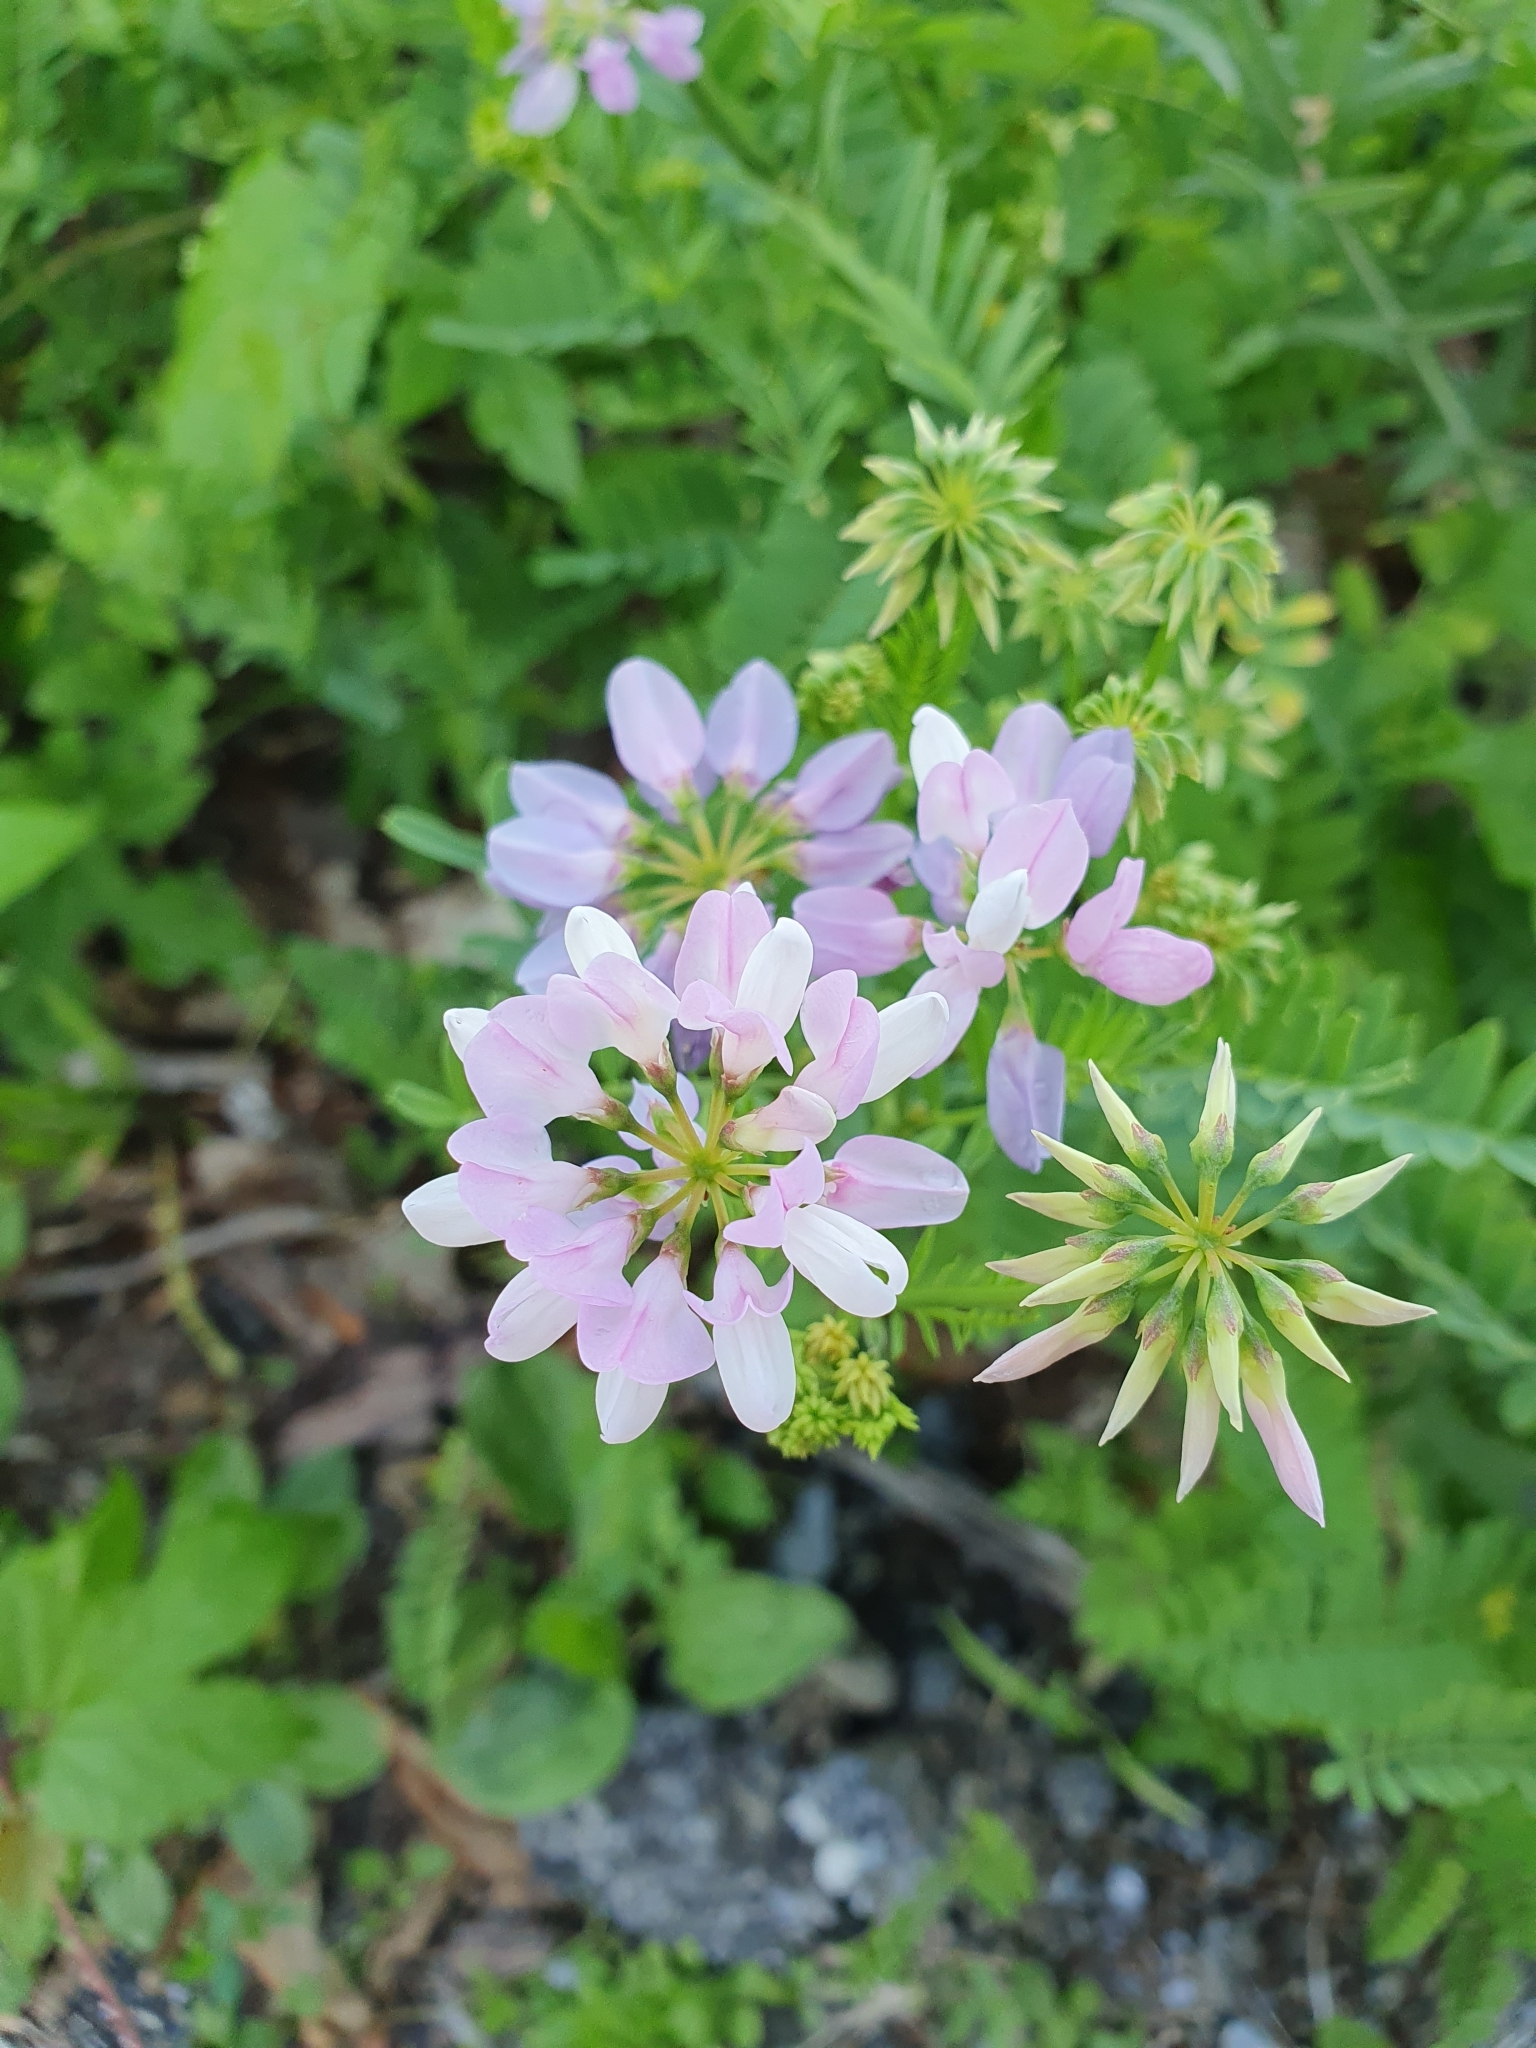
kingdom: Plantae
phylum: Tracheophyta
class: Magnoliopsida
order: Fabales
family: Fabaceae
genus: Coronilla
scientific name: Coronilla varia
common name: Crownvetch
